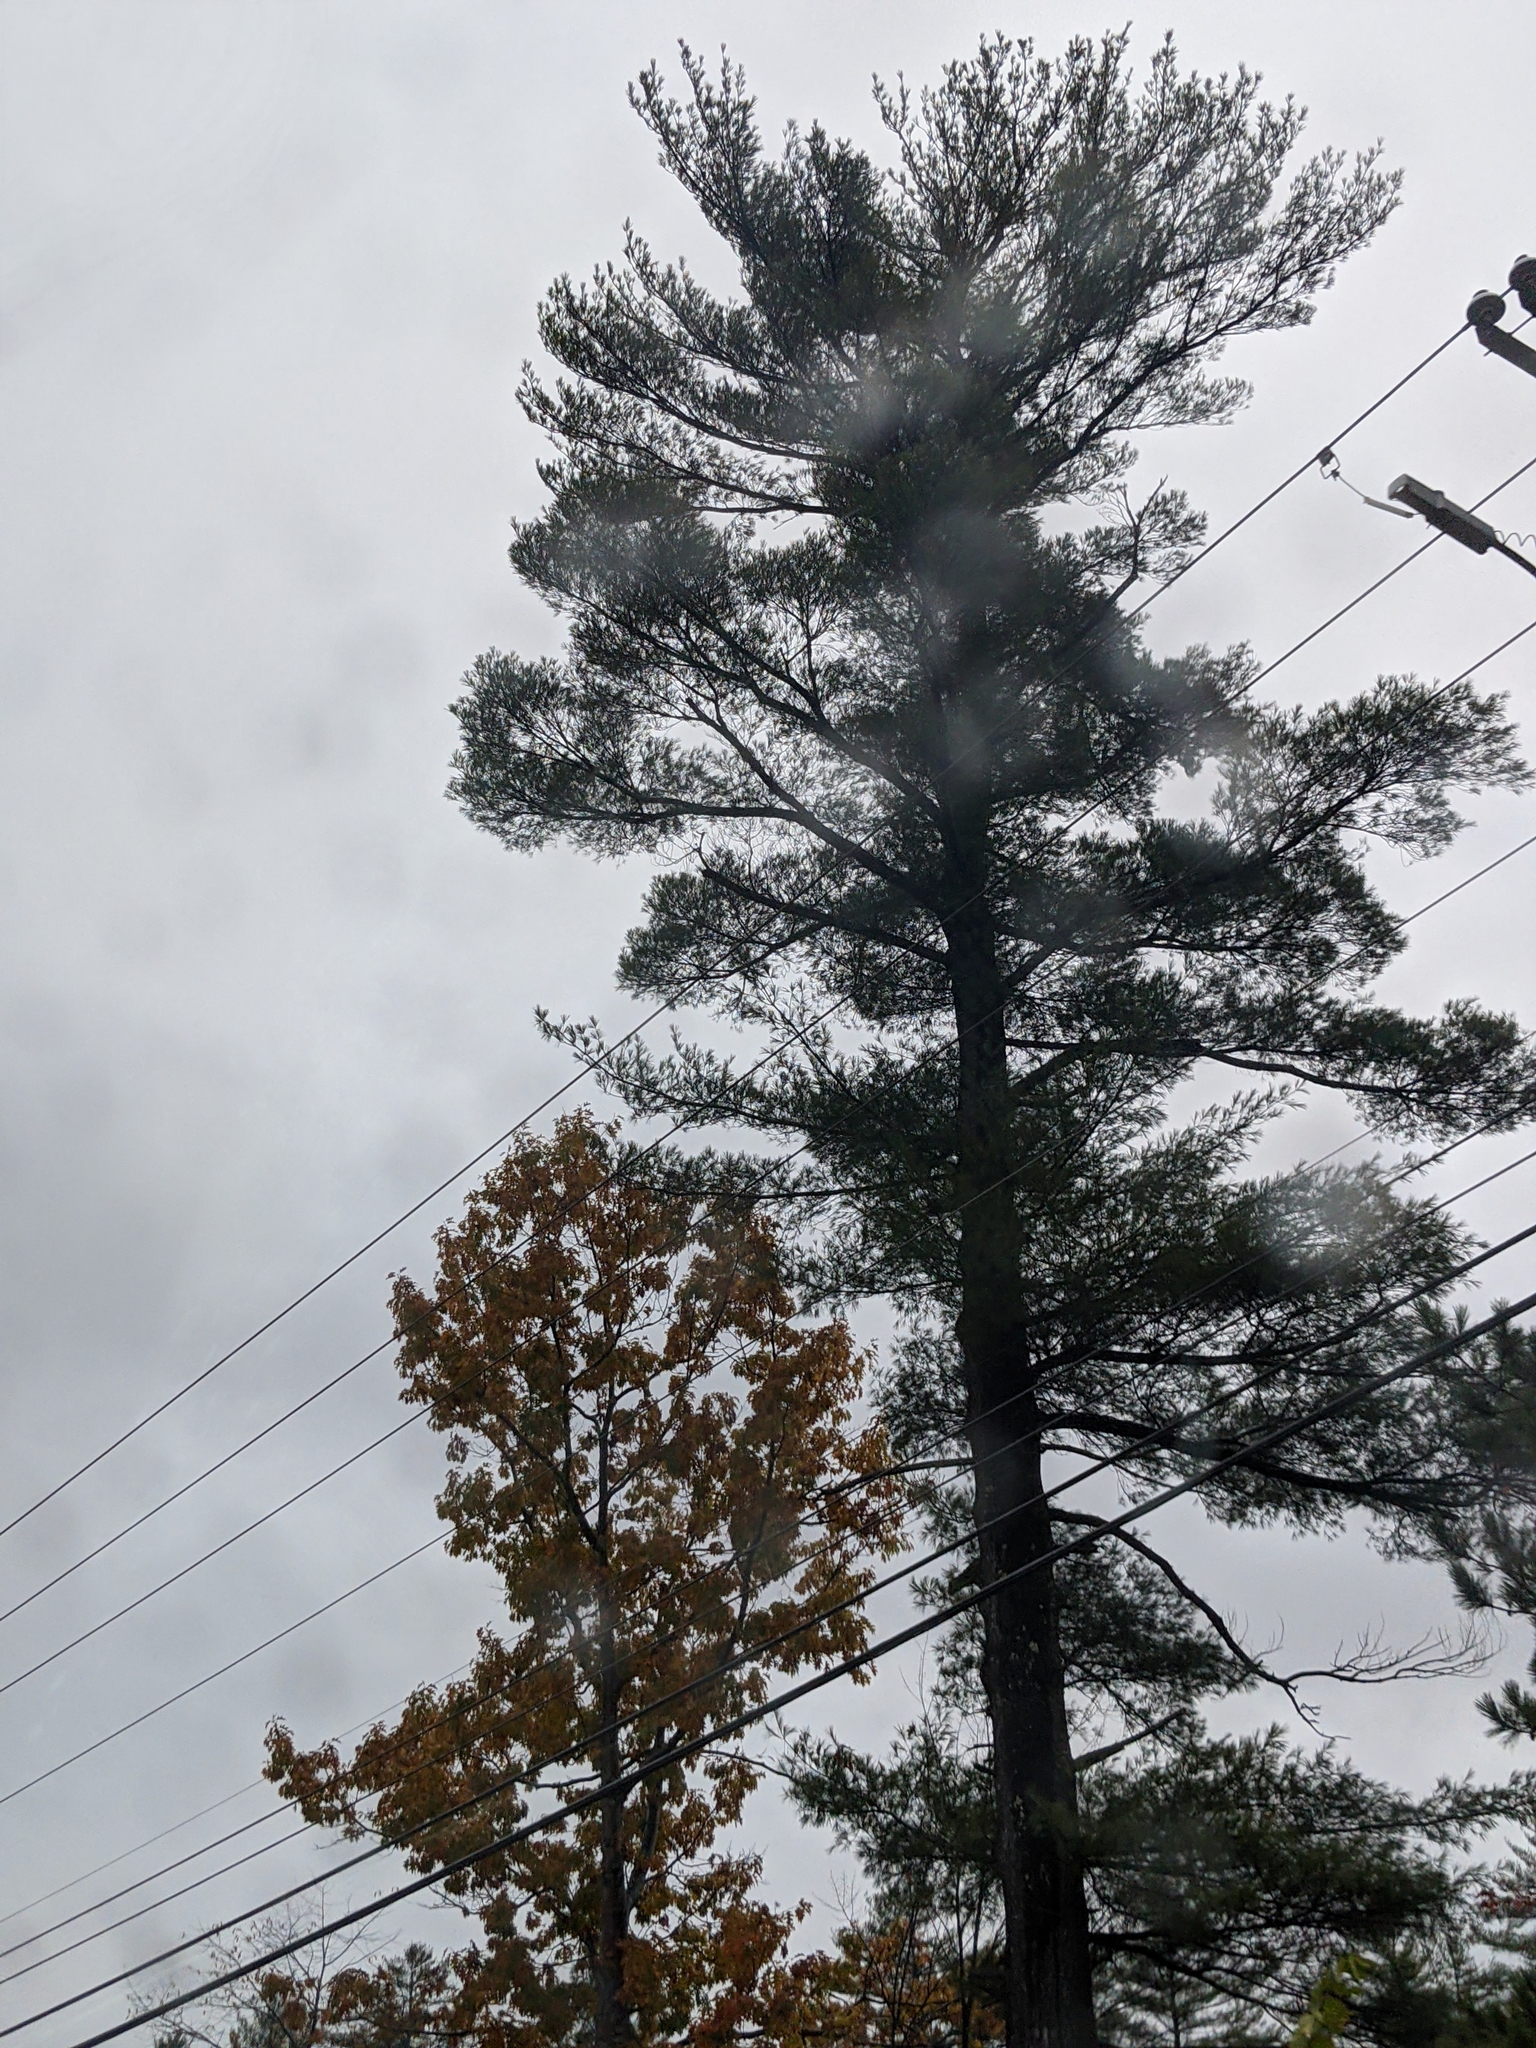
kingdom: Plantae
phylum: Tracheophyta
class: Pinopsida
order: Pinales
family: Pinaceae
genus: Pinus
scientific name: Pinus strobus
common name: Weymouth pine
